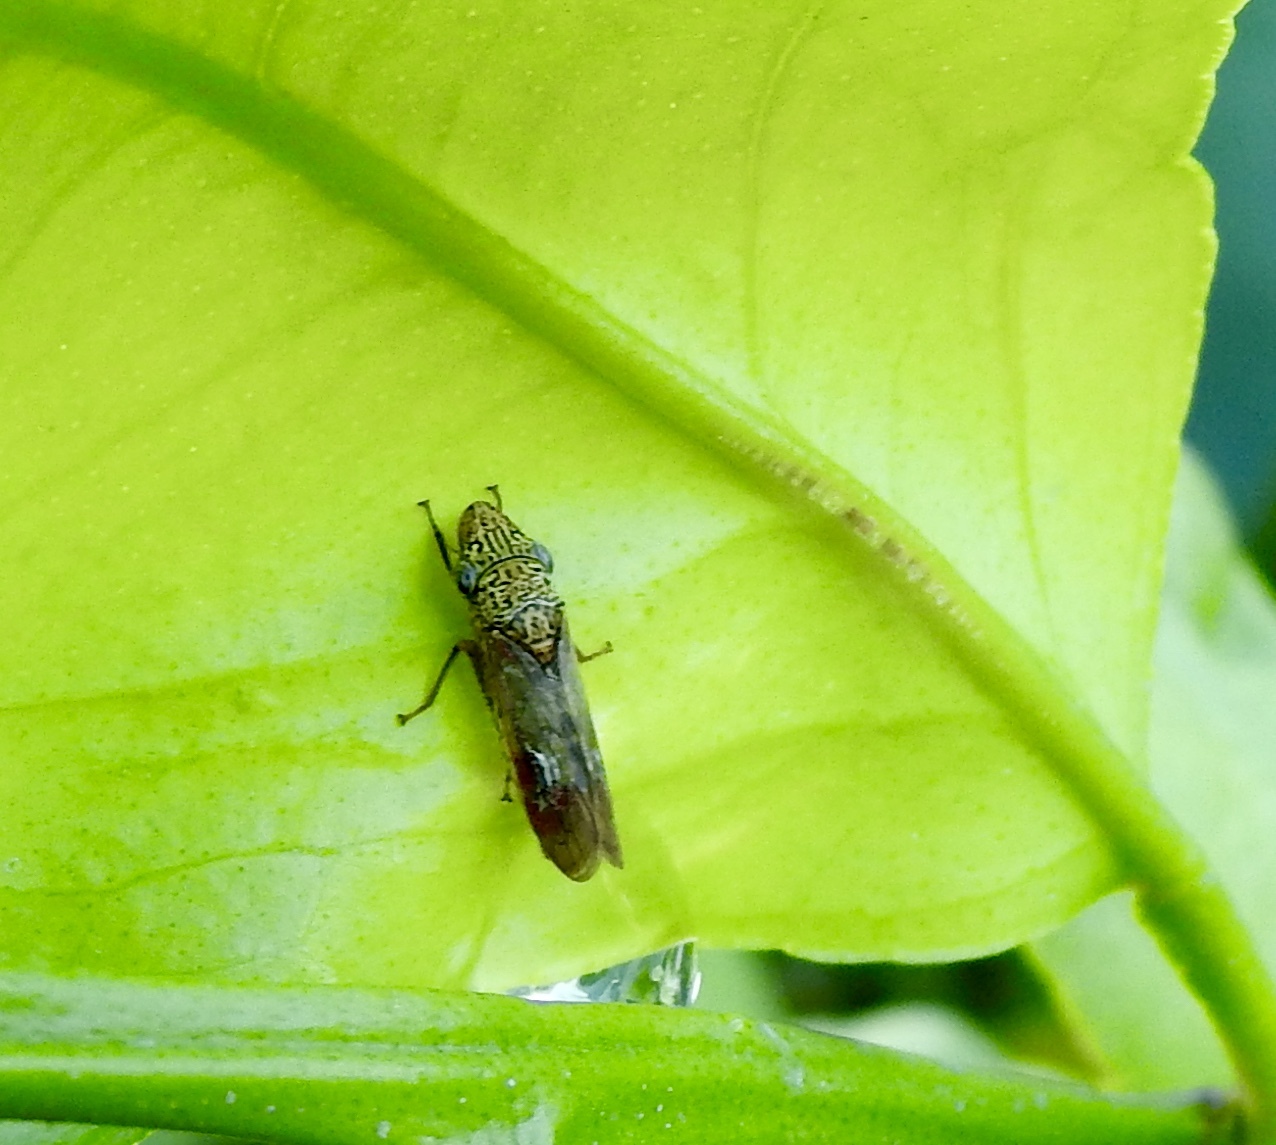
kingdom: Animalia
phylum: Arthropoda
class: Insecta
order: Hemiptera
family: Cicadellidae
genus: Homalodisca
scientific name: Homalodisca liturata
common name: Lacertate sharpshooter
